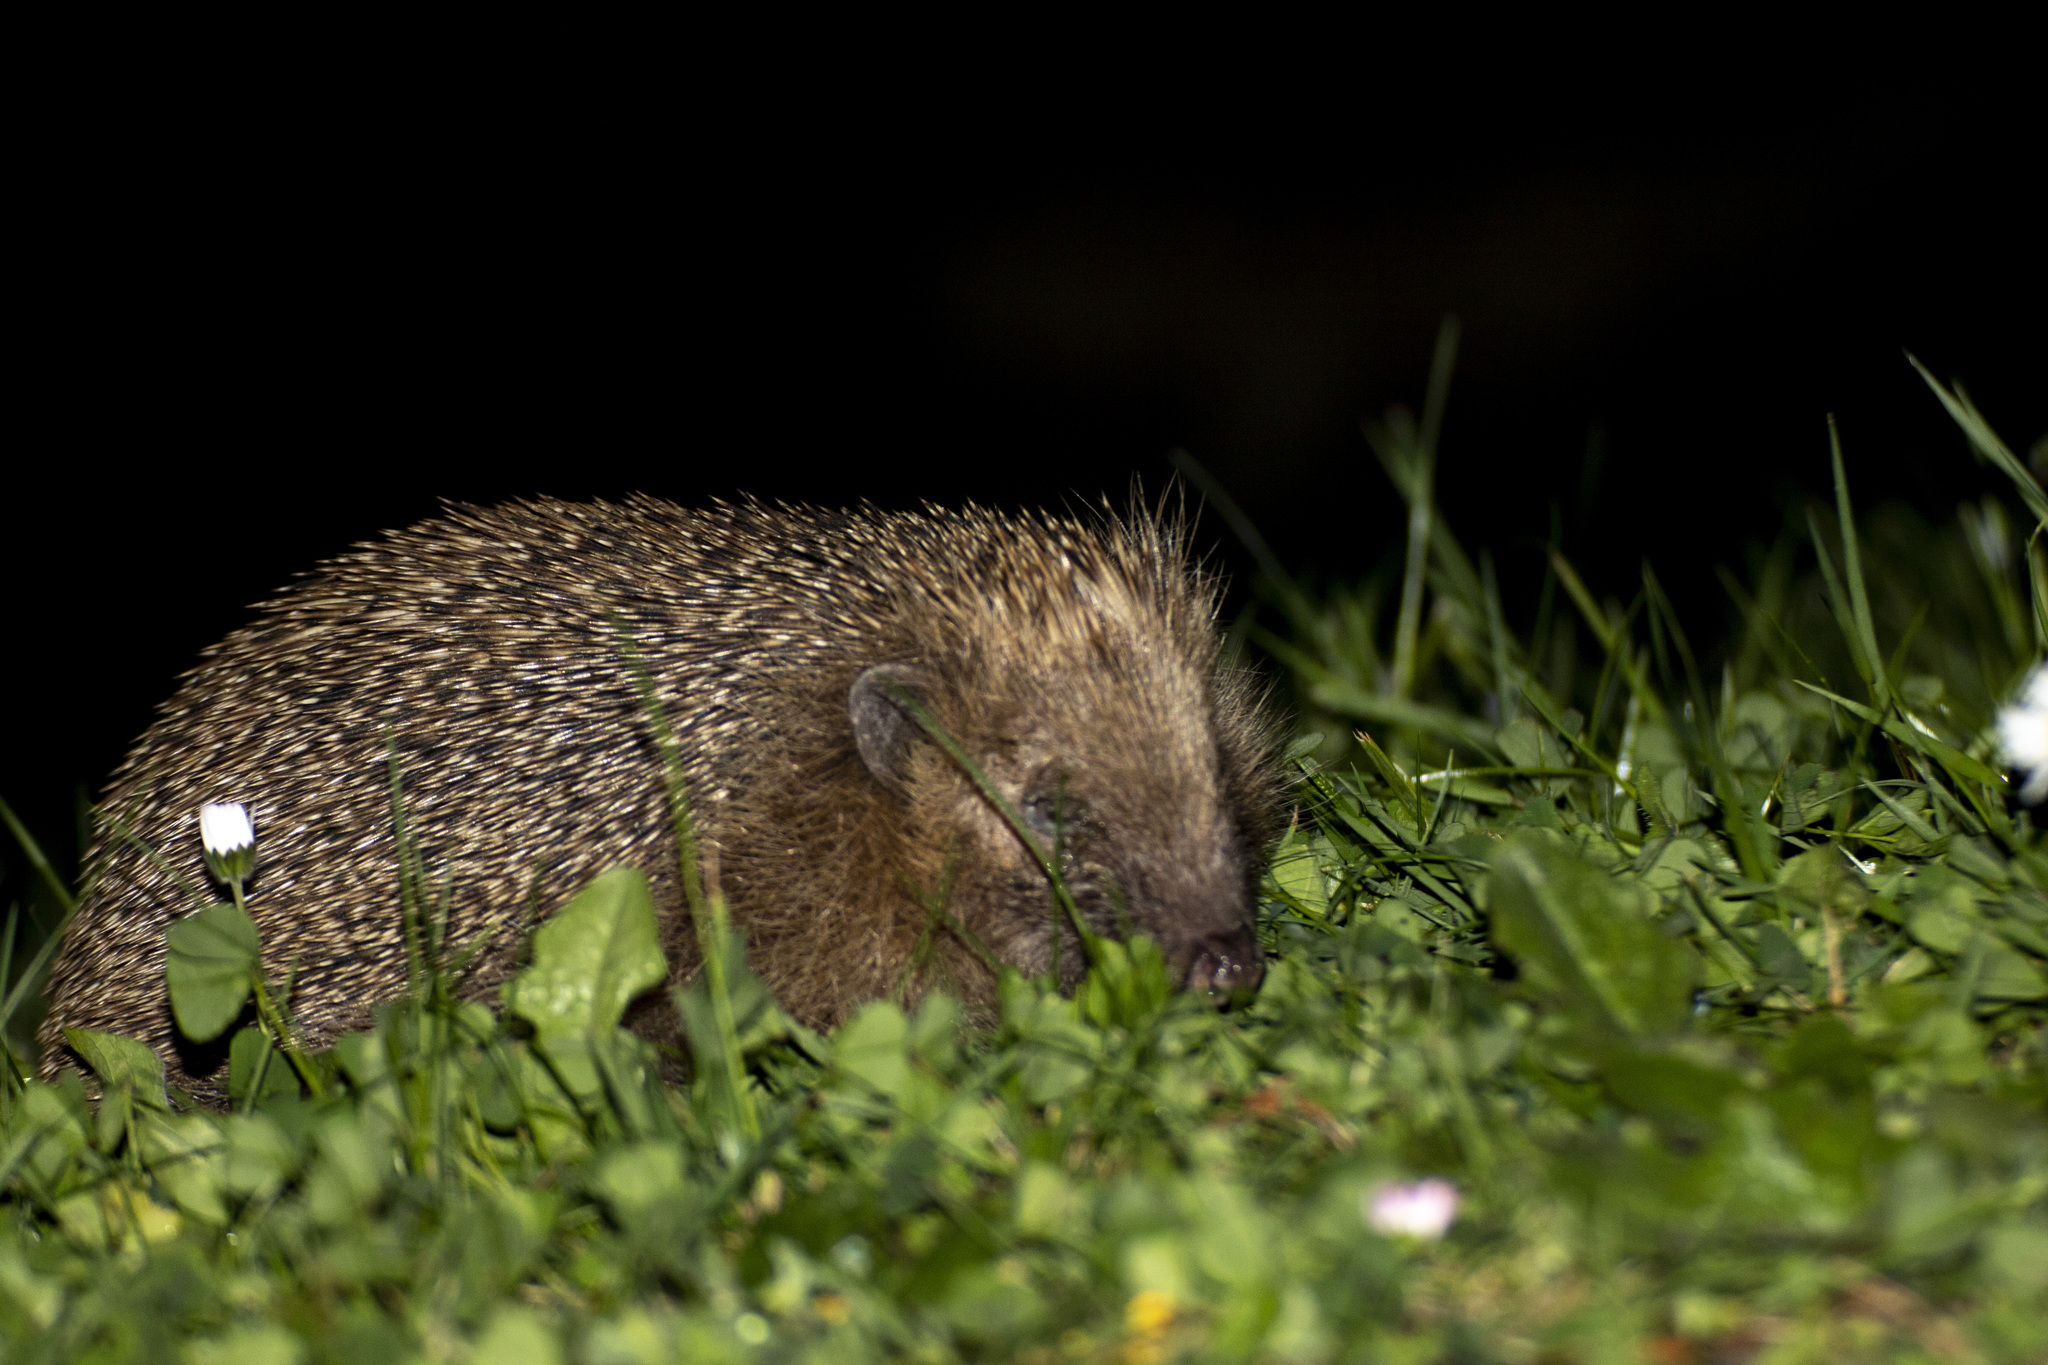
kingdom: Animalia
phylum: Chordata
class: Mammalia
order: Erinaceomorpha
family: Erinaceidae
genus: Erinaceus
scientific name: Erinaceus europaeus
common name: West european hedgehog
